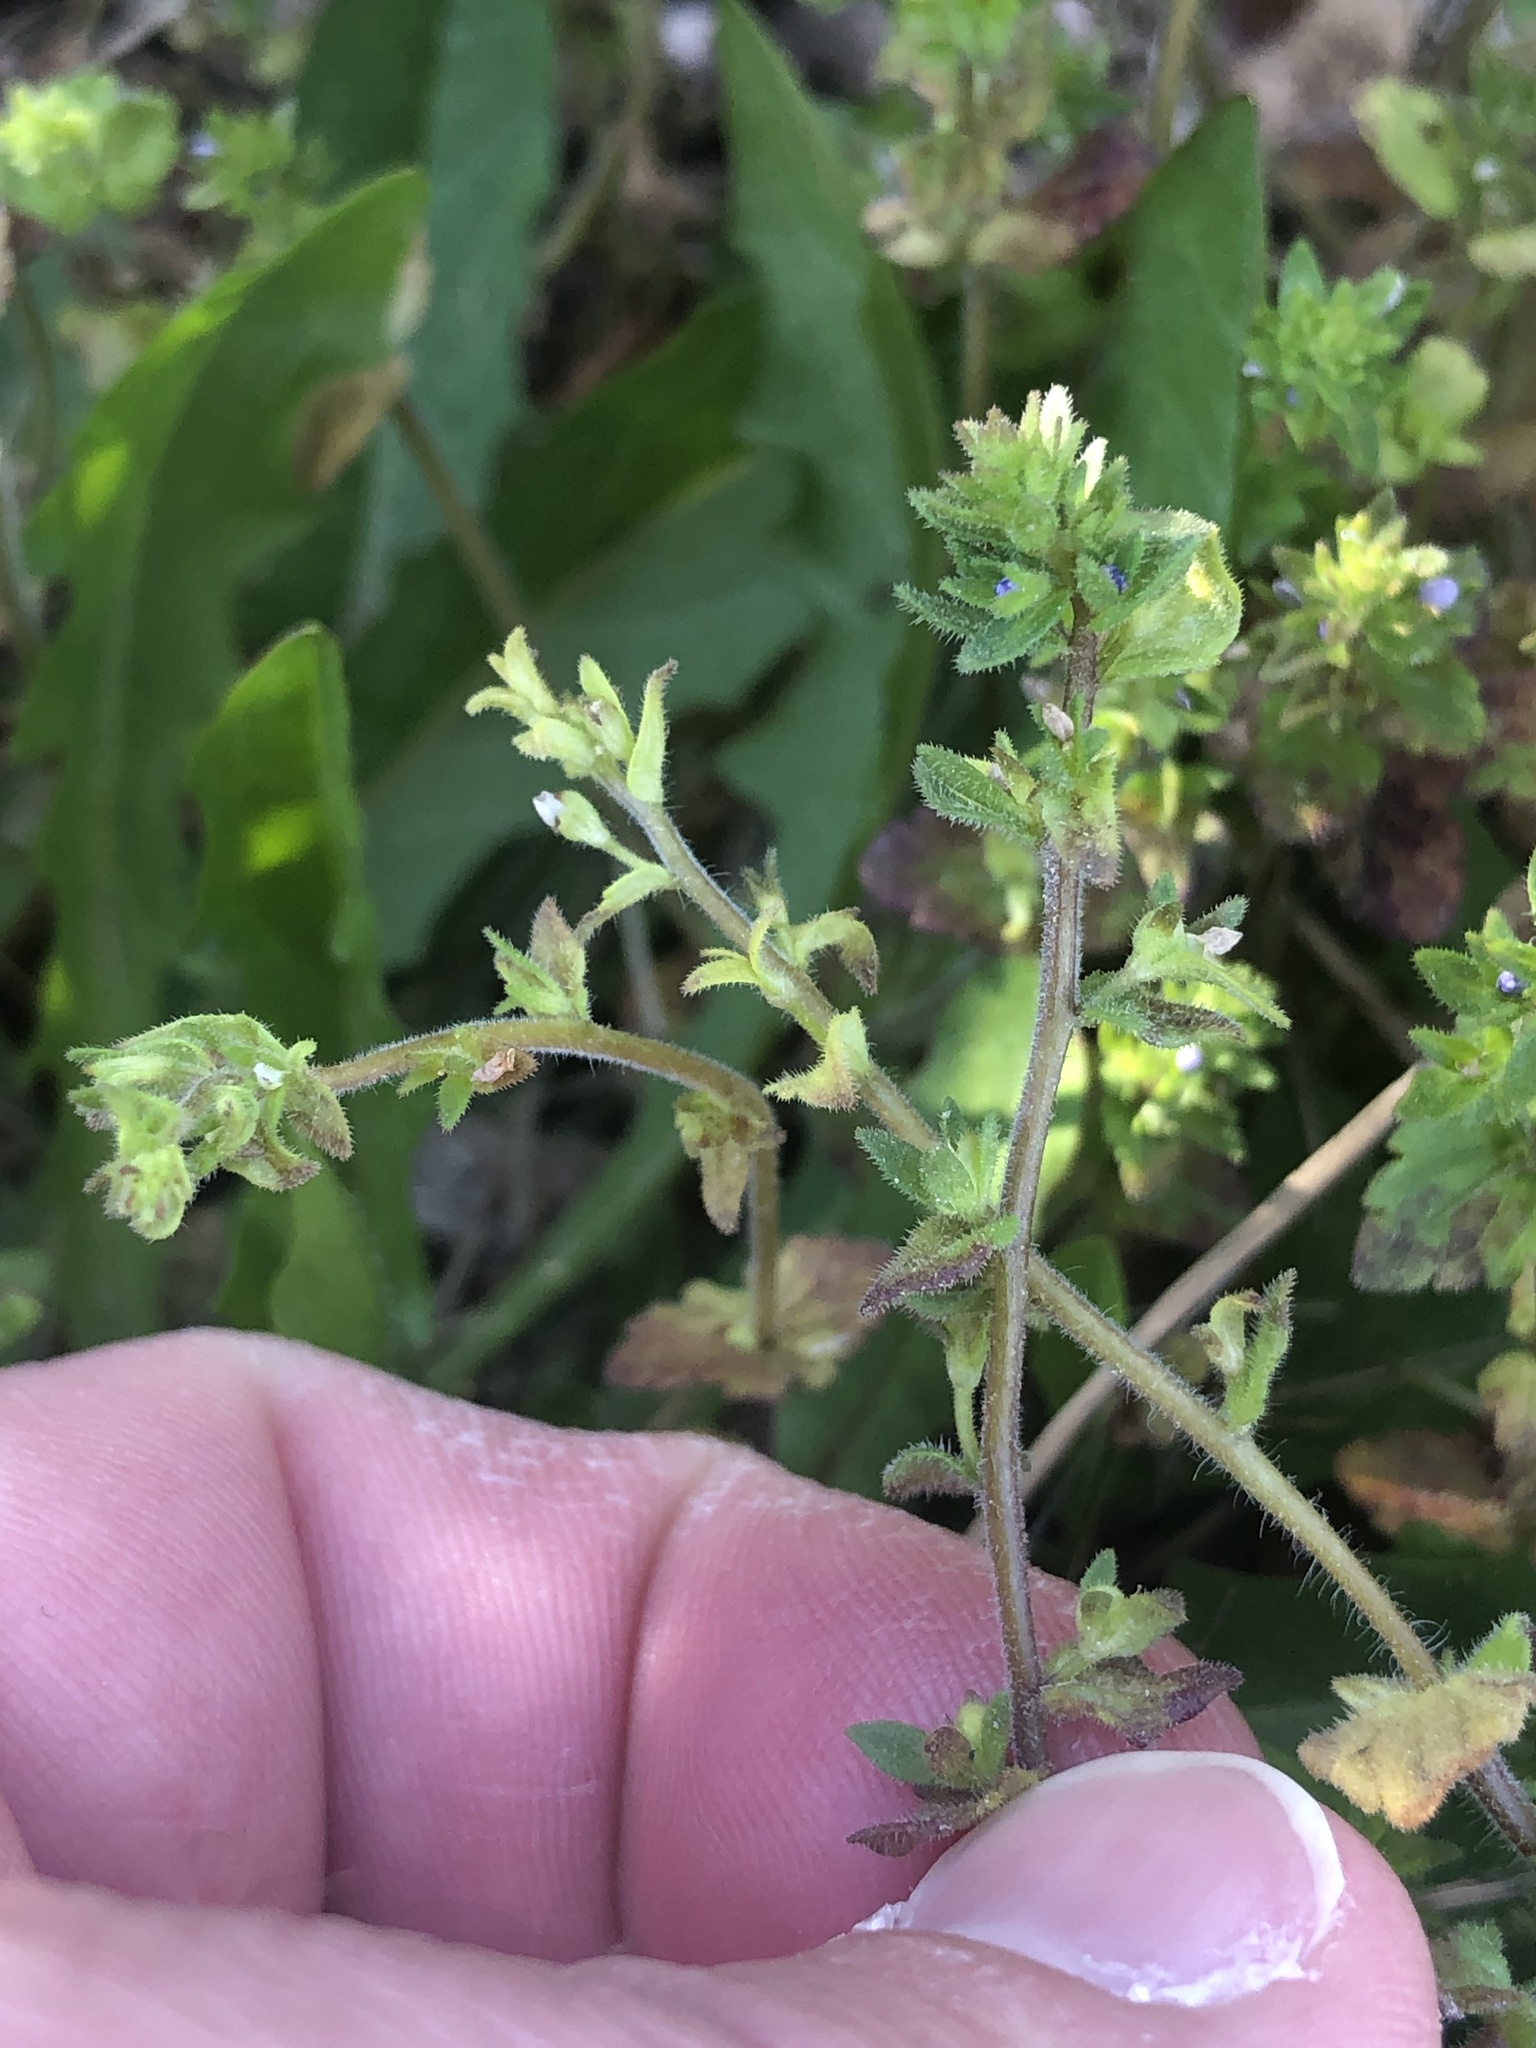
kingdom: Plantae
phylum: Tracheophyta
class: Magnoliopsida
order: Lamiales
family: Plantaginaceae
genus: Veronica
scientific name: Veronica arvensis
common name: Corn speedwell
